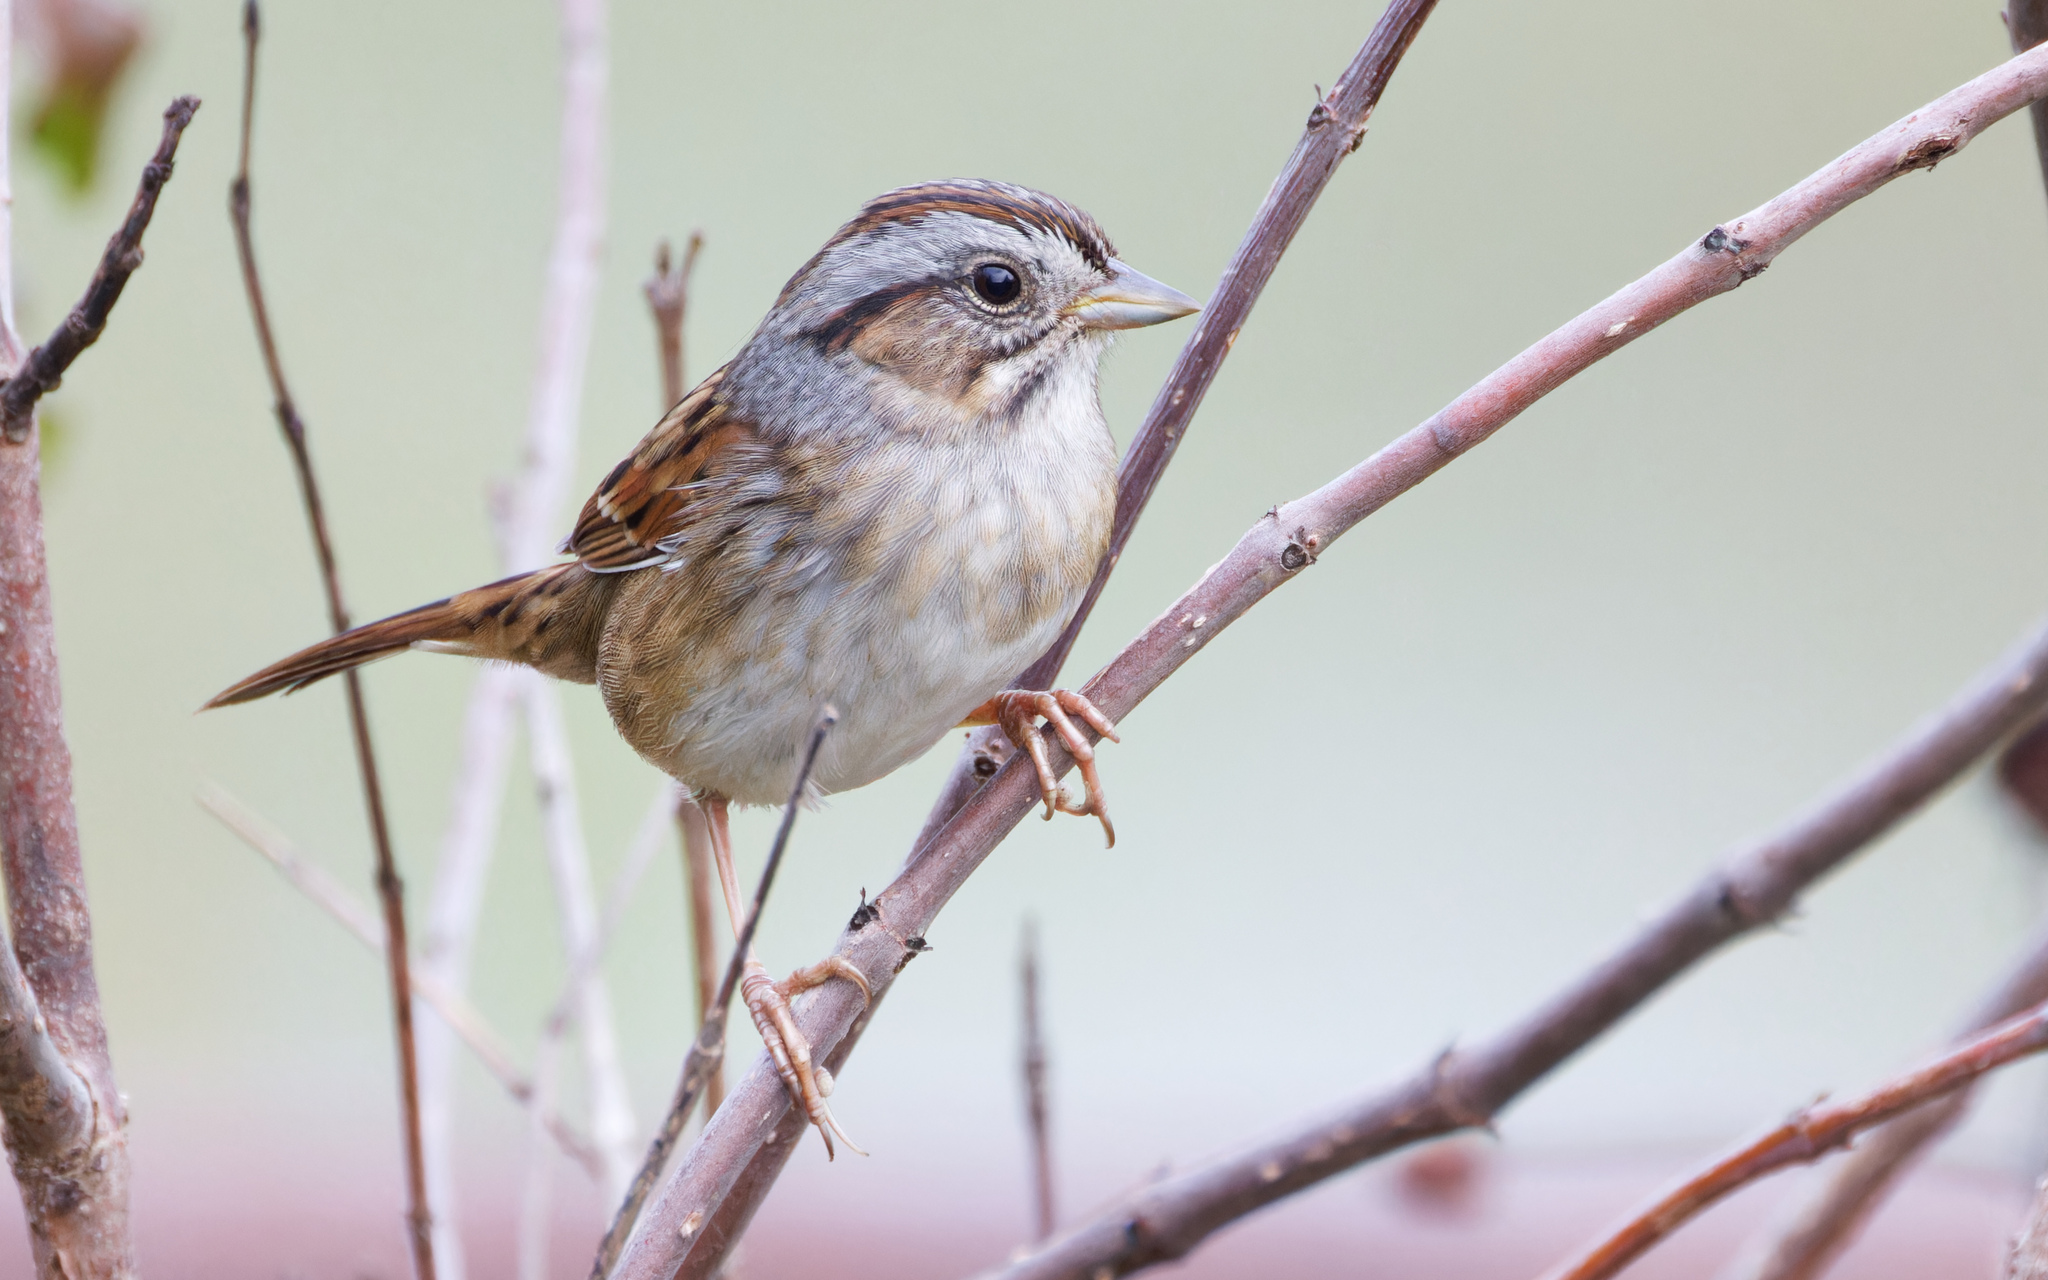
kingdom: Animalia
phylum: Chordata
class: Aves
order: Passeriformes
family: Passerellidae
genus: Melospiza
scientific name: Melospiza georgiana
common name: Swamp sparrow
